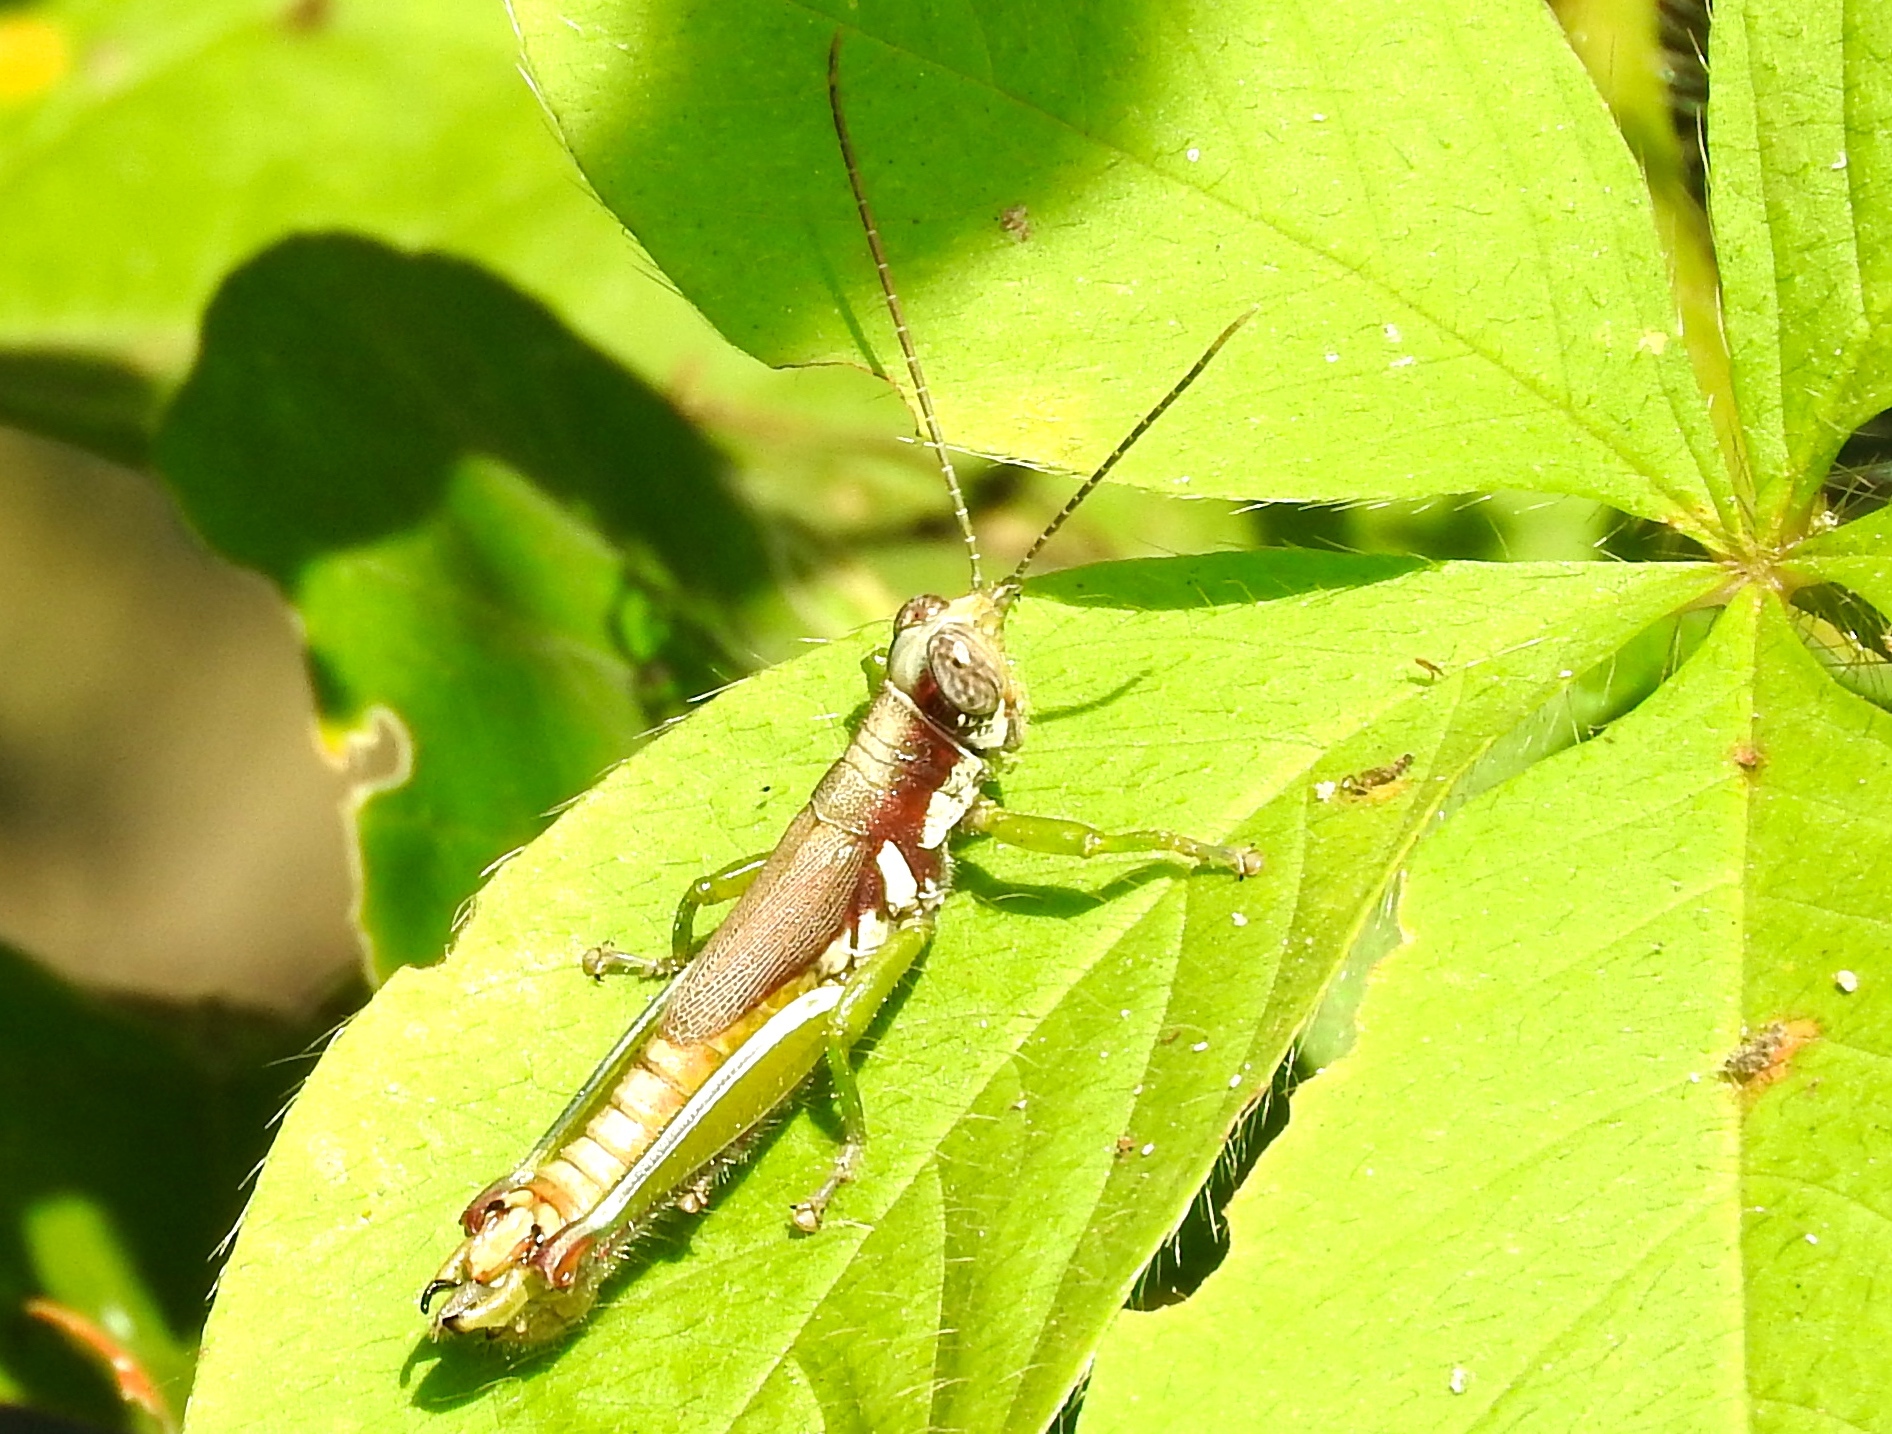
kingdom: Animalia
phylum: Arthropoda
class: Insecta
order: Orthoptera
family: Acrididae
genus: Proctolabus
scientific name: Proctolabus cerciatus
